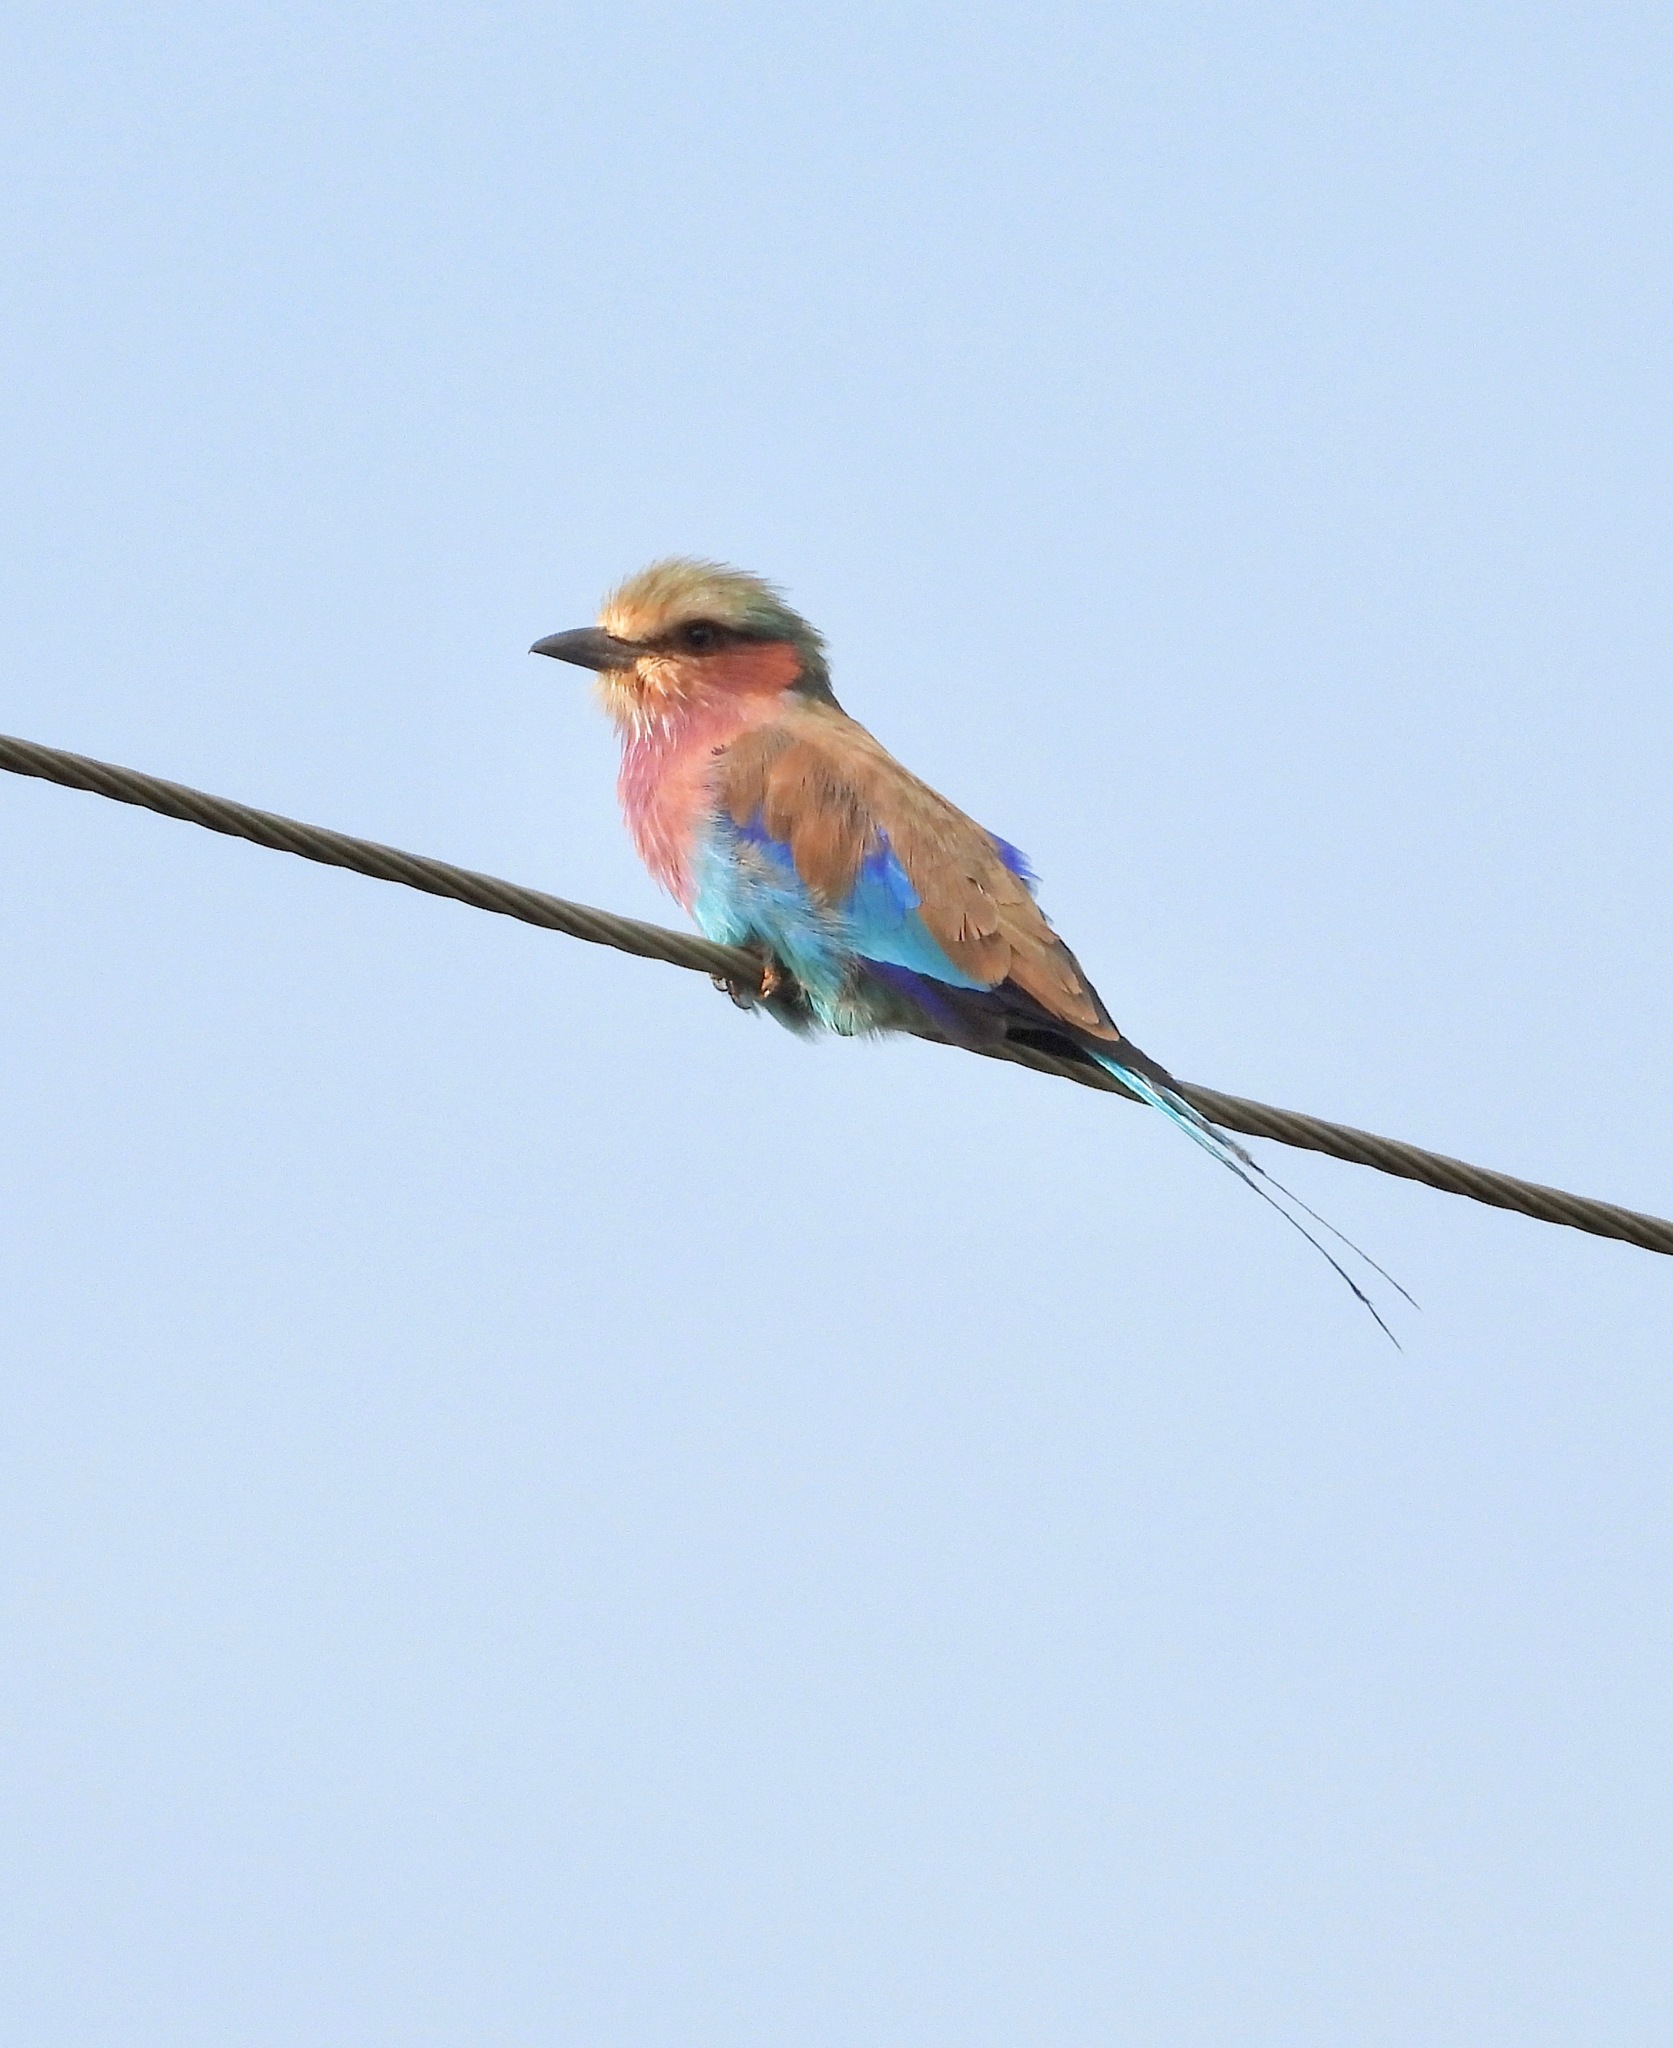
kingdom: Animalia
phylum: Chordata
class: Aves
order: Coraciiformes
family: Coraciidae
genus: Coracias
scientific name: Coracias caudatus
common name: Lilac-breasted roller
